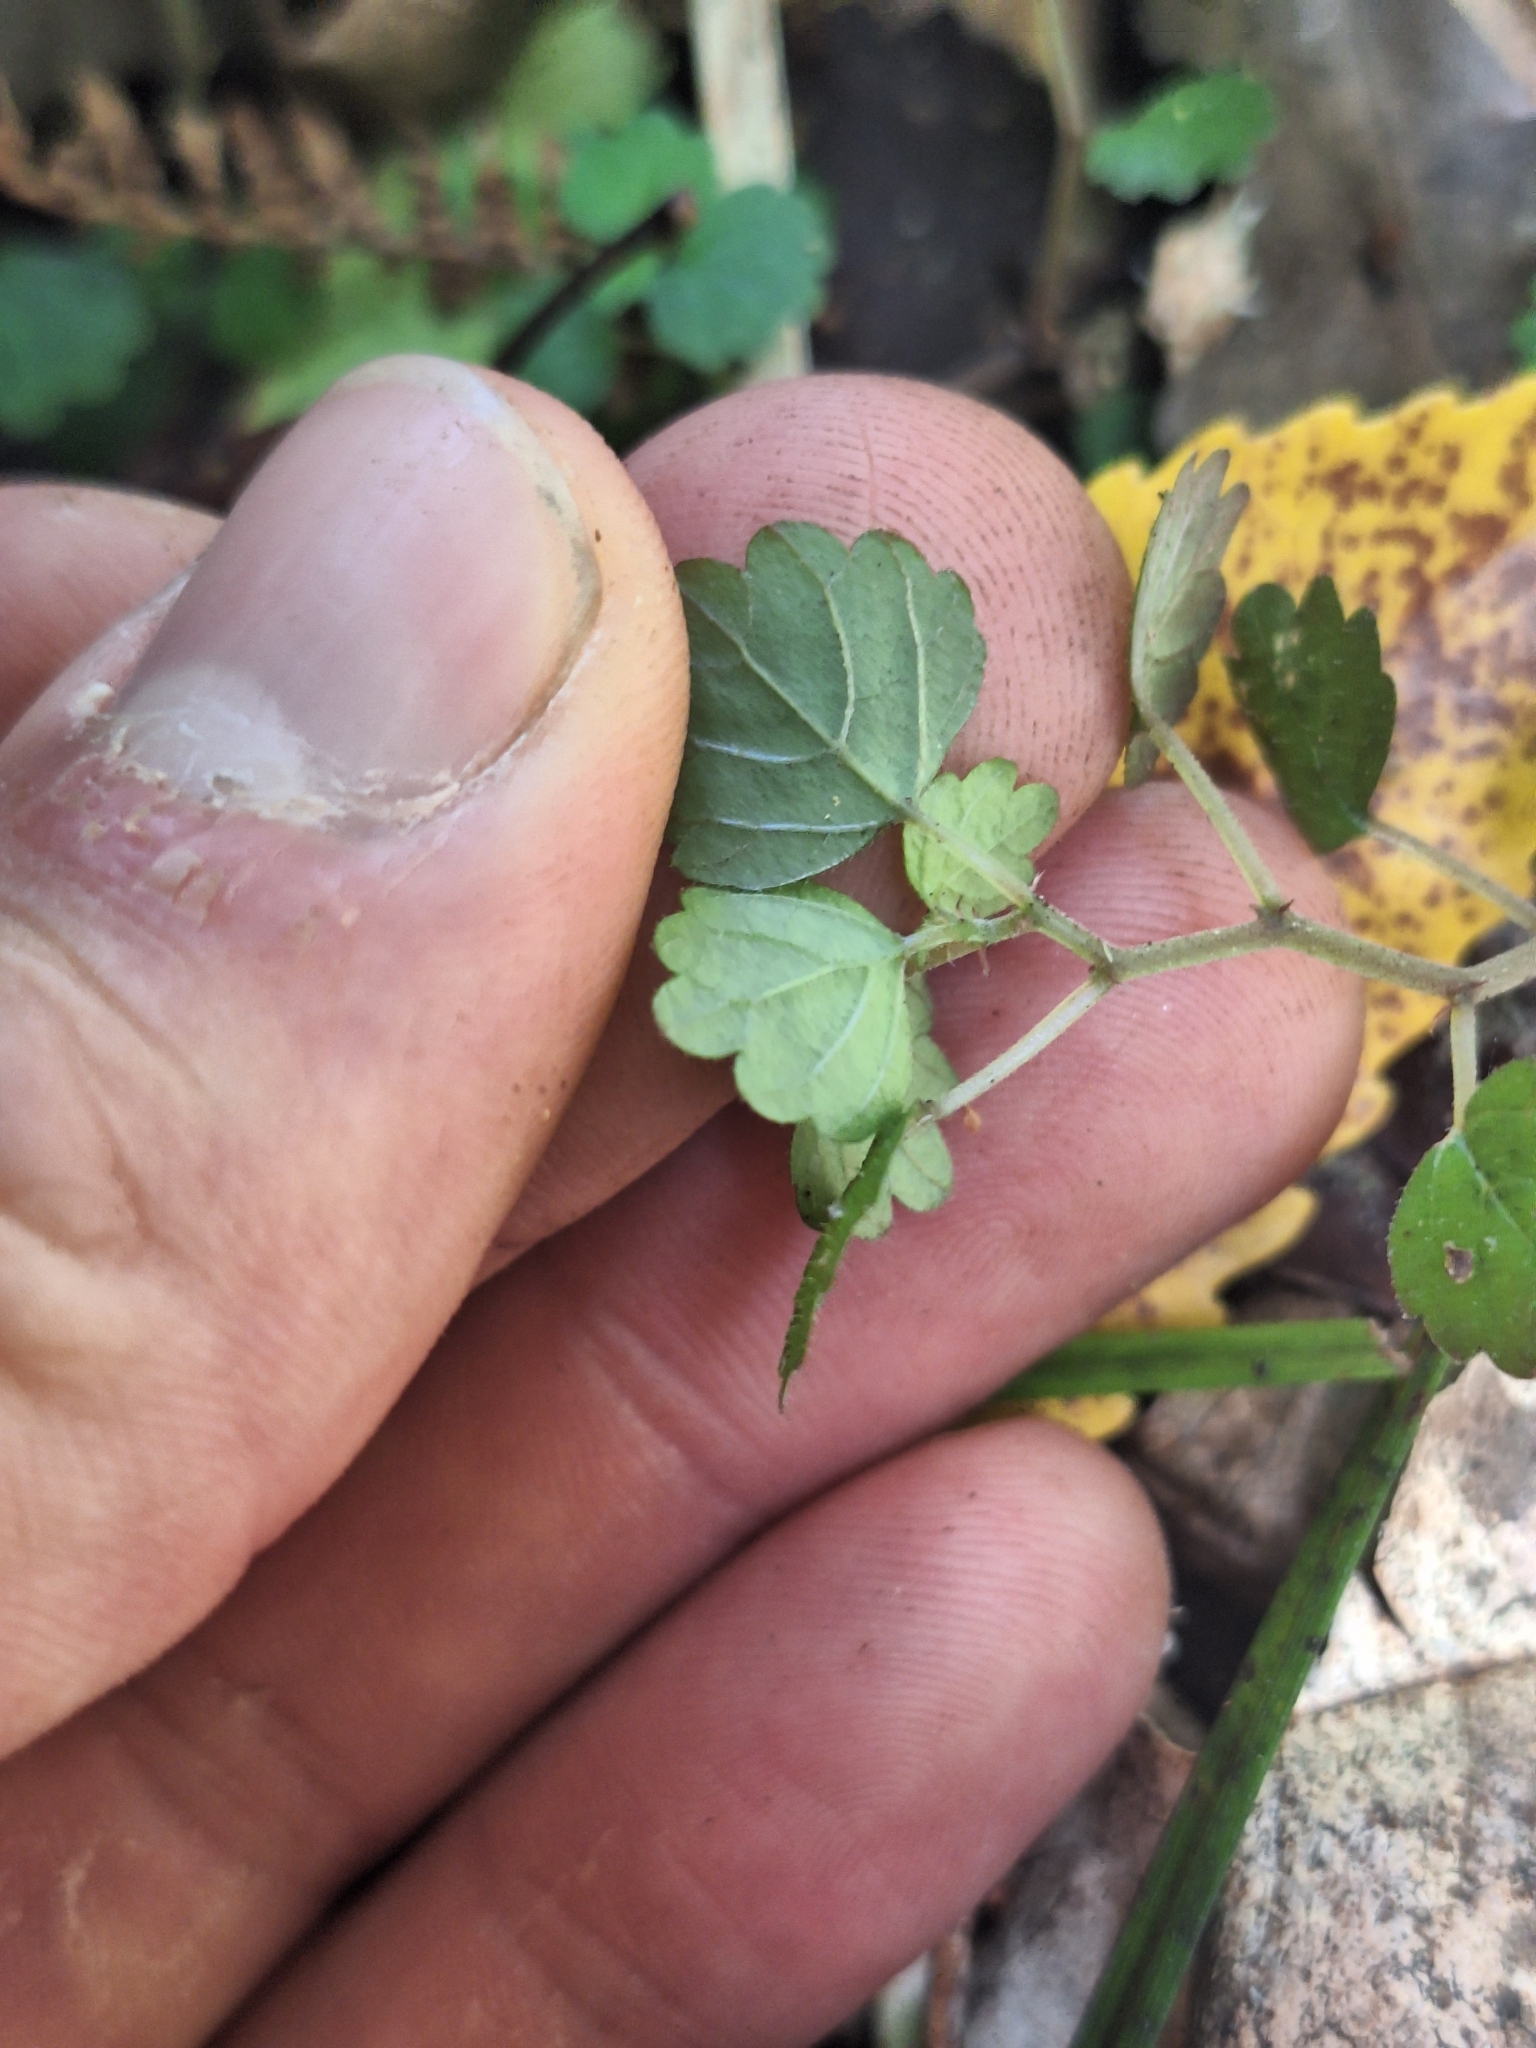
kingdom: Plantae
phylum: Tracheophyta
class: Magnoliopsida
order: Rosales
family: Urticaceae
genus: Australina
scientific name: Australina pusilla
